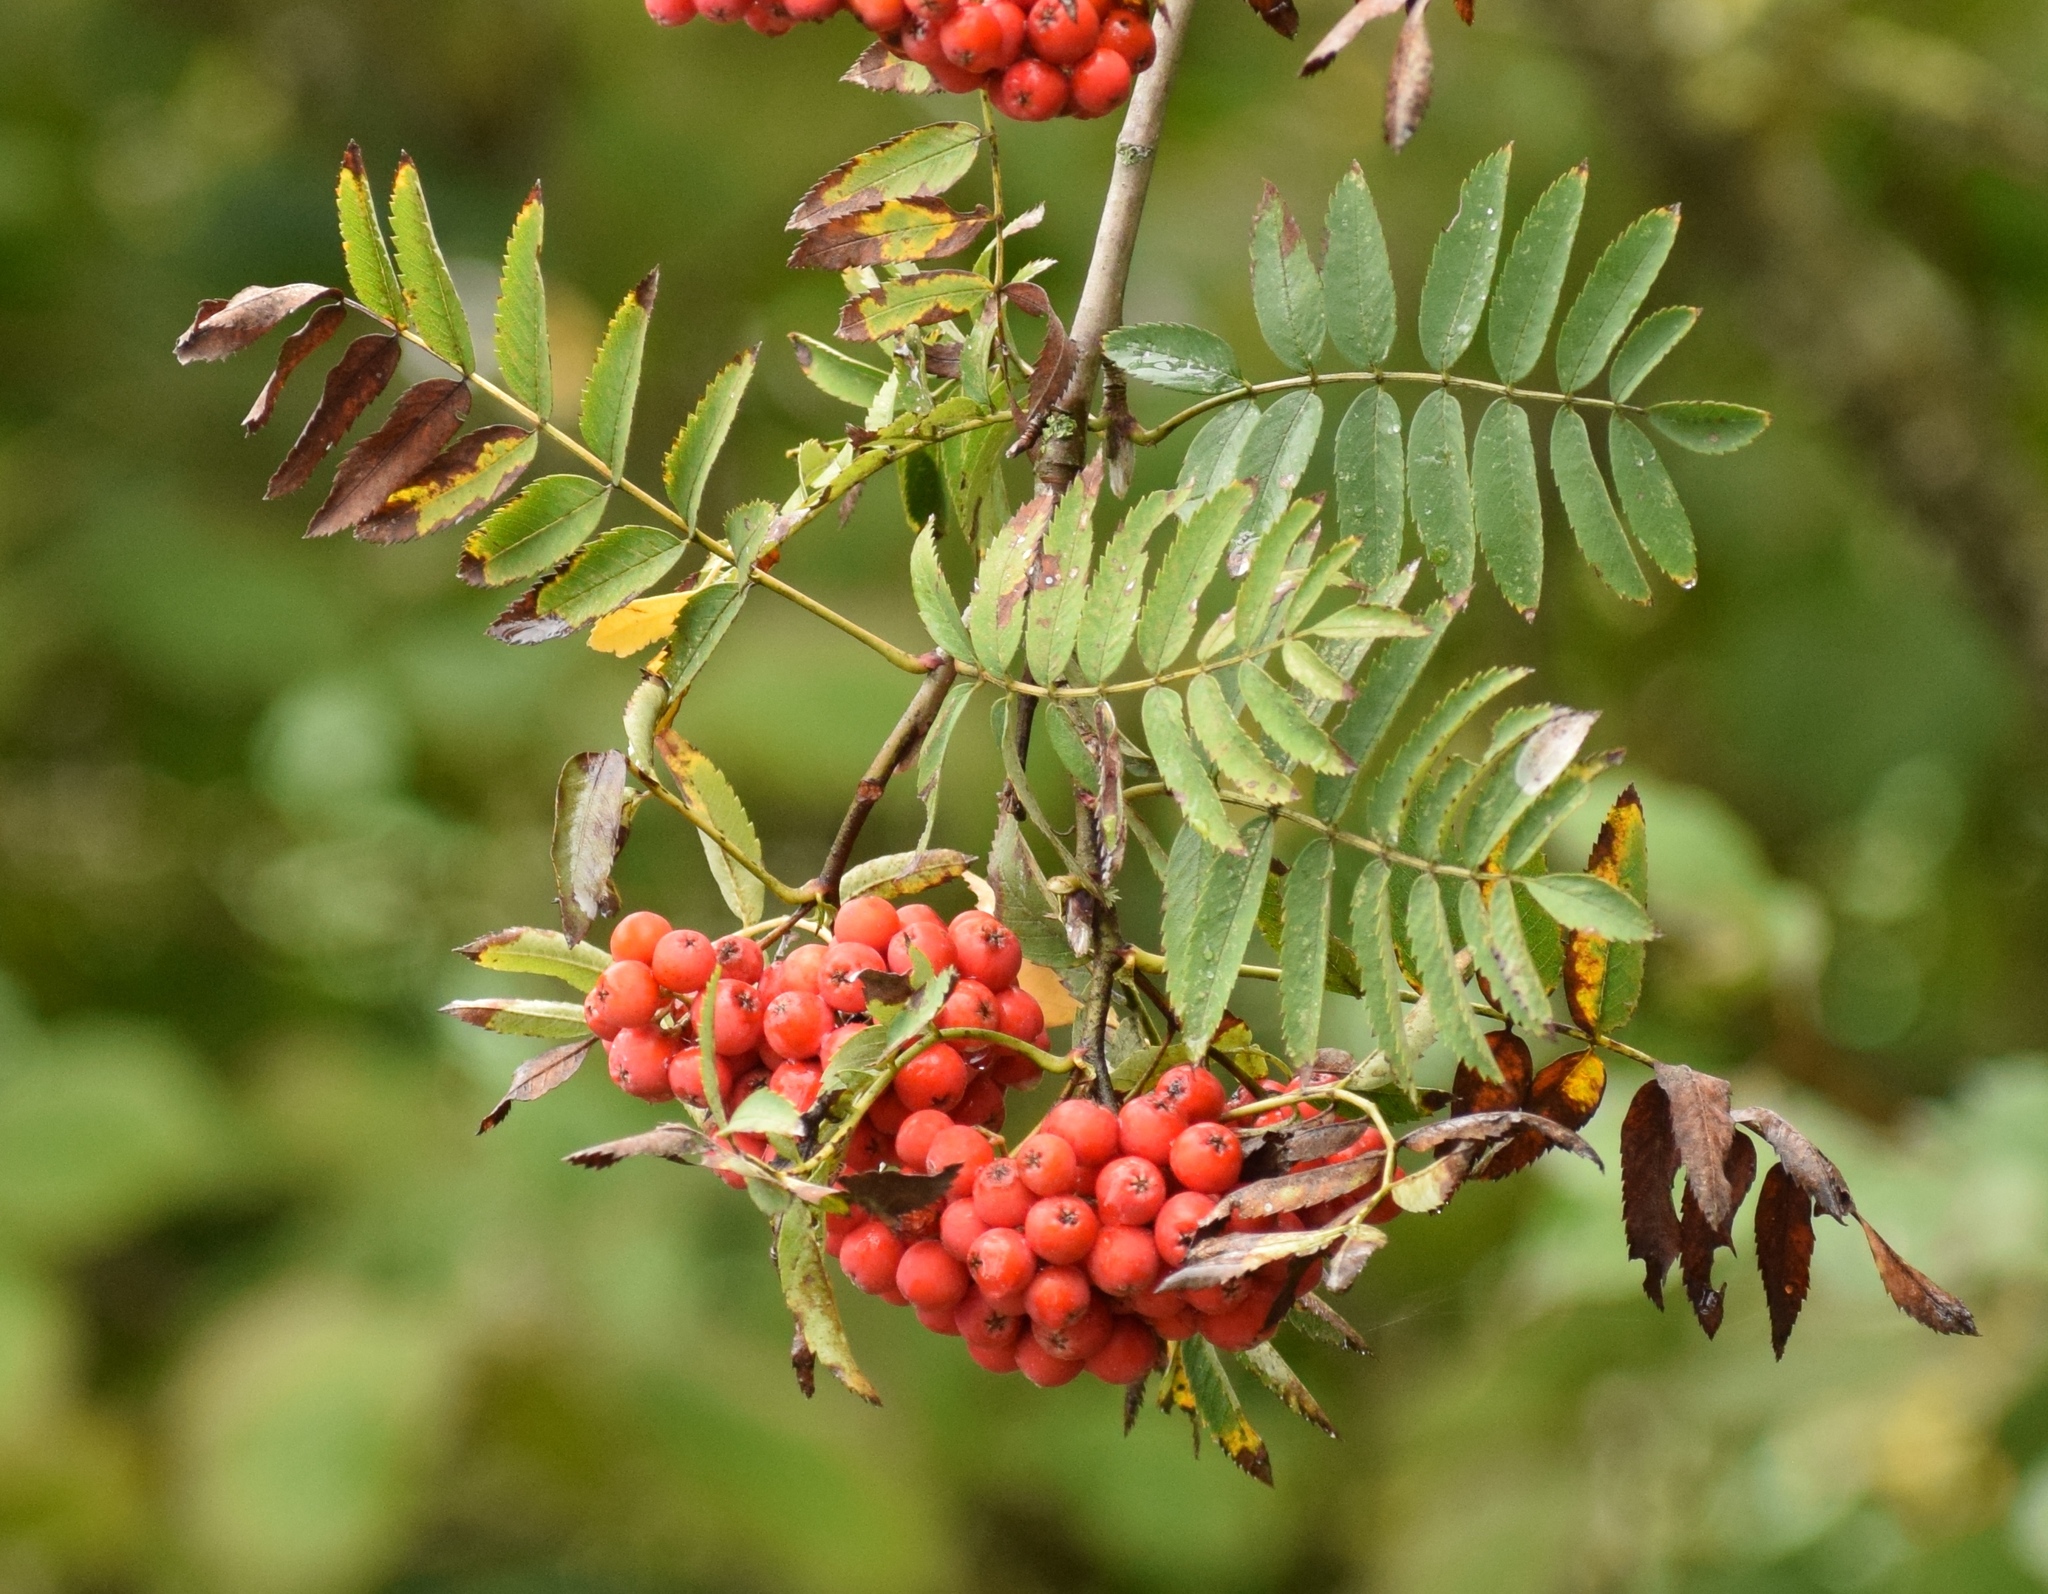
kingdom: Plantae
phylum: Tracheophyta
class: Magnoliopsida
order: Rosales
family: Rosaceae
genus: Sorbus
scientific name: Sorbus aucuparia
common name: Rowan
